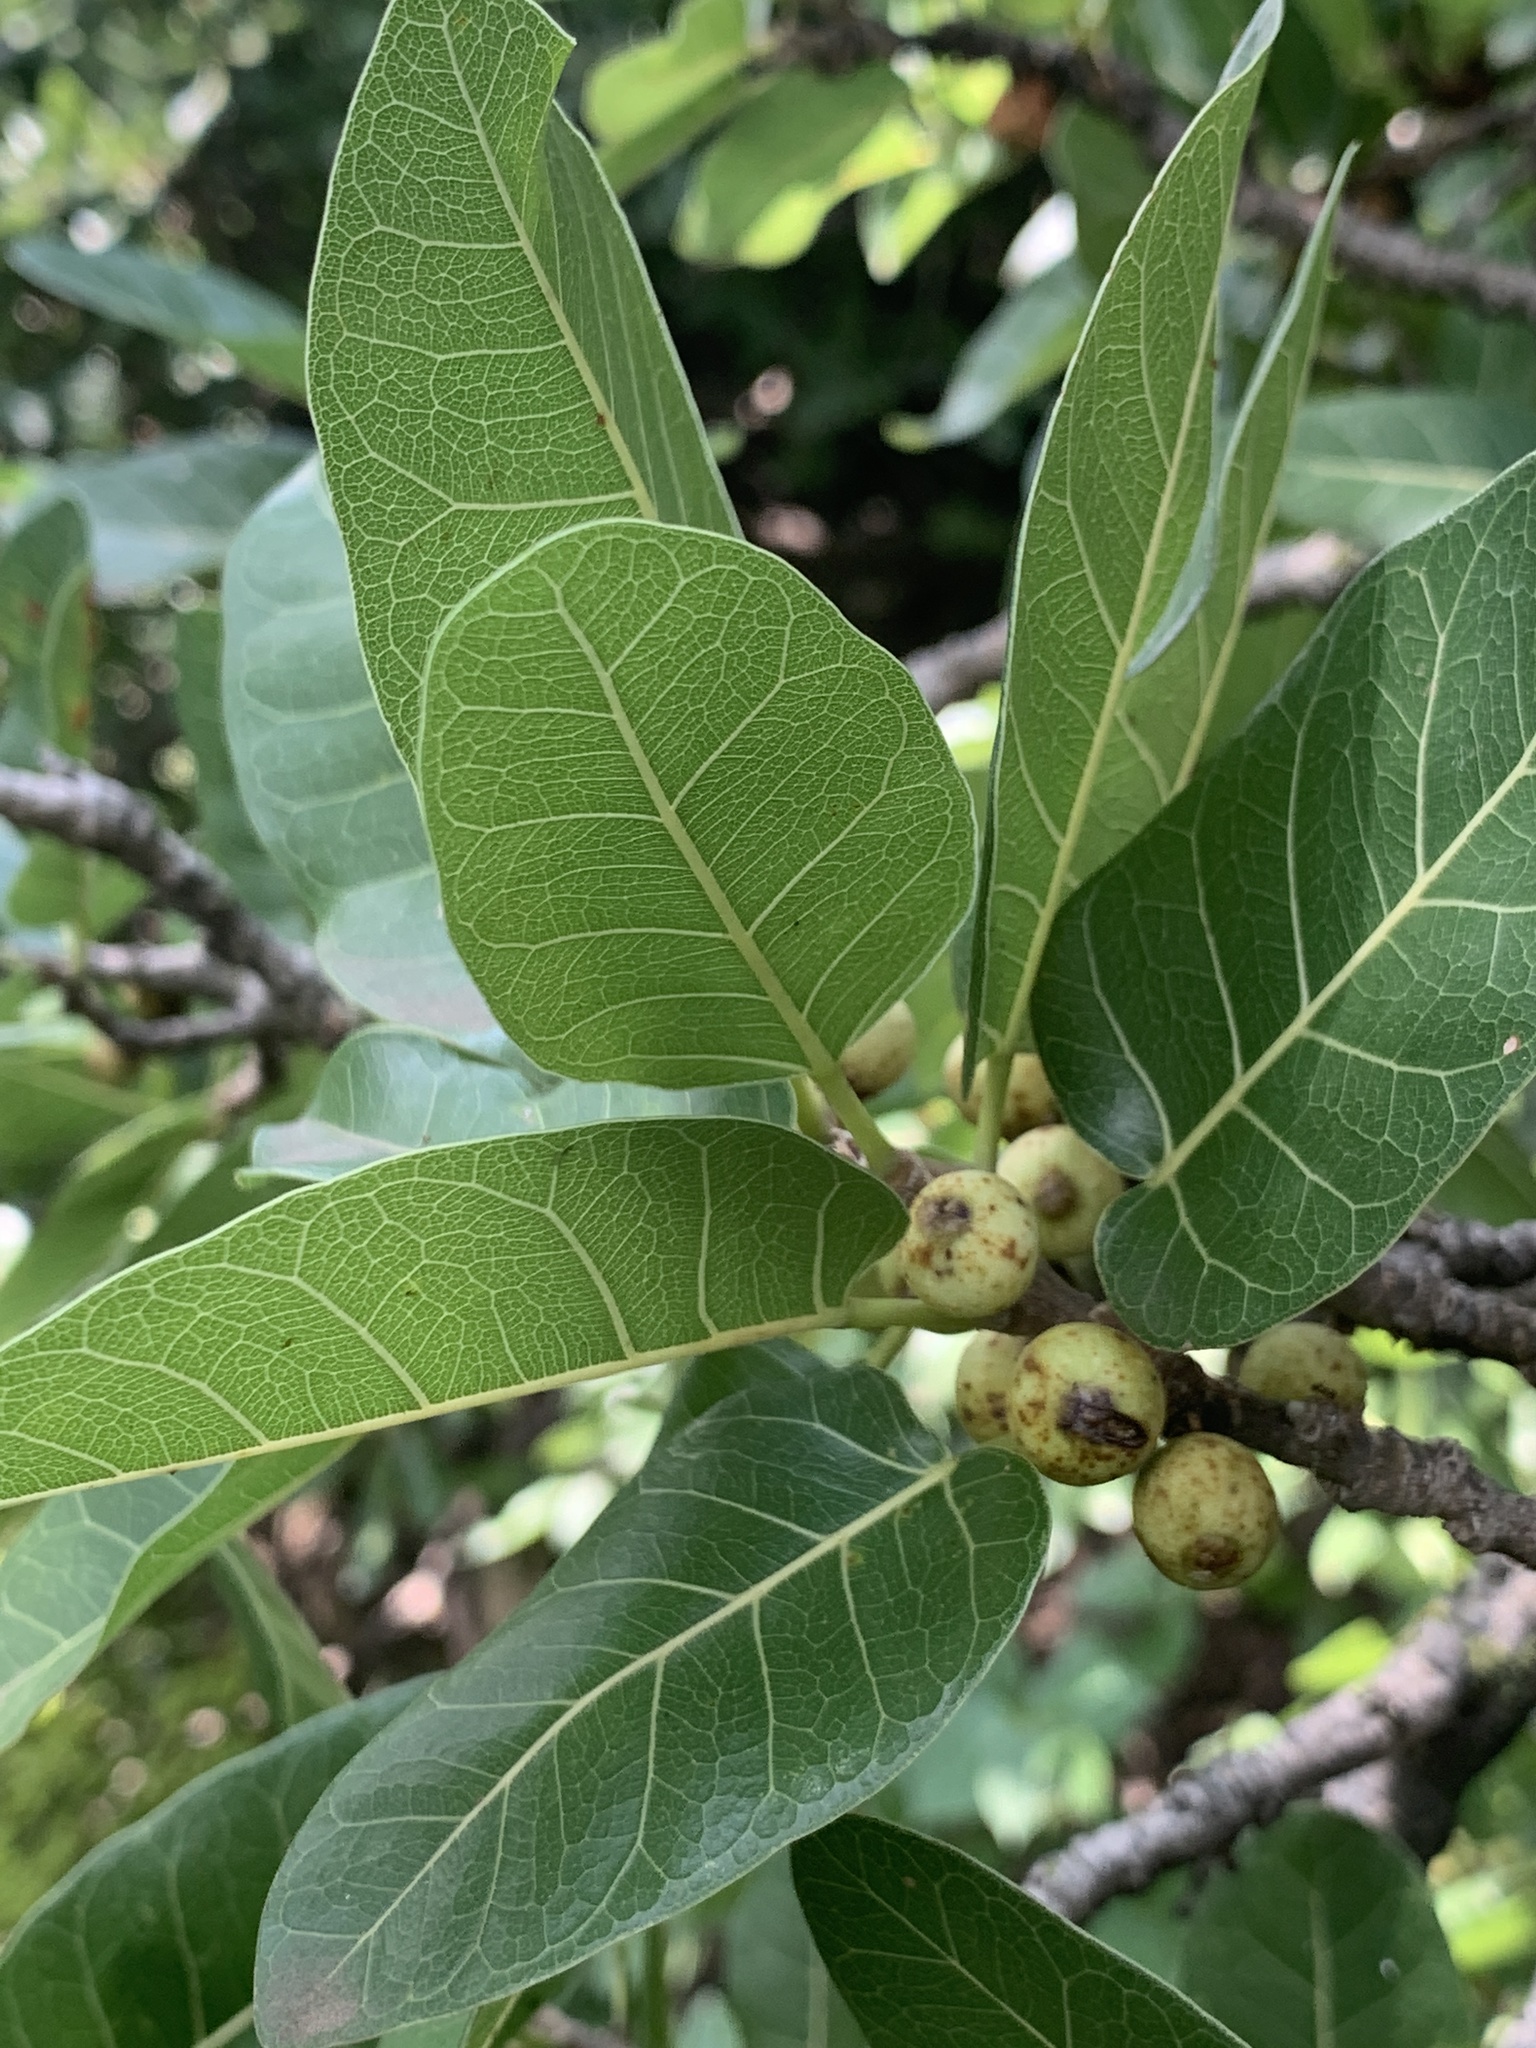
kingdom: Plantae
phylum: Tracheophyta
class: Magnoliopsida
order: Rosales
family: Moraceae
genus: Ficus
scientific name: Ficus ingens
